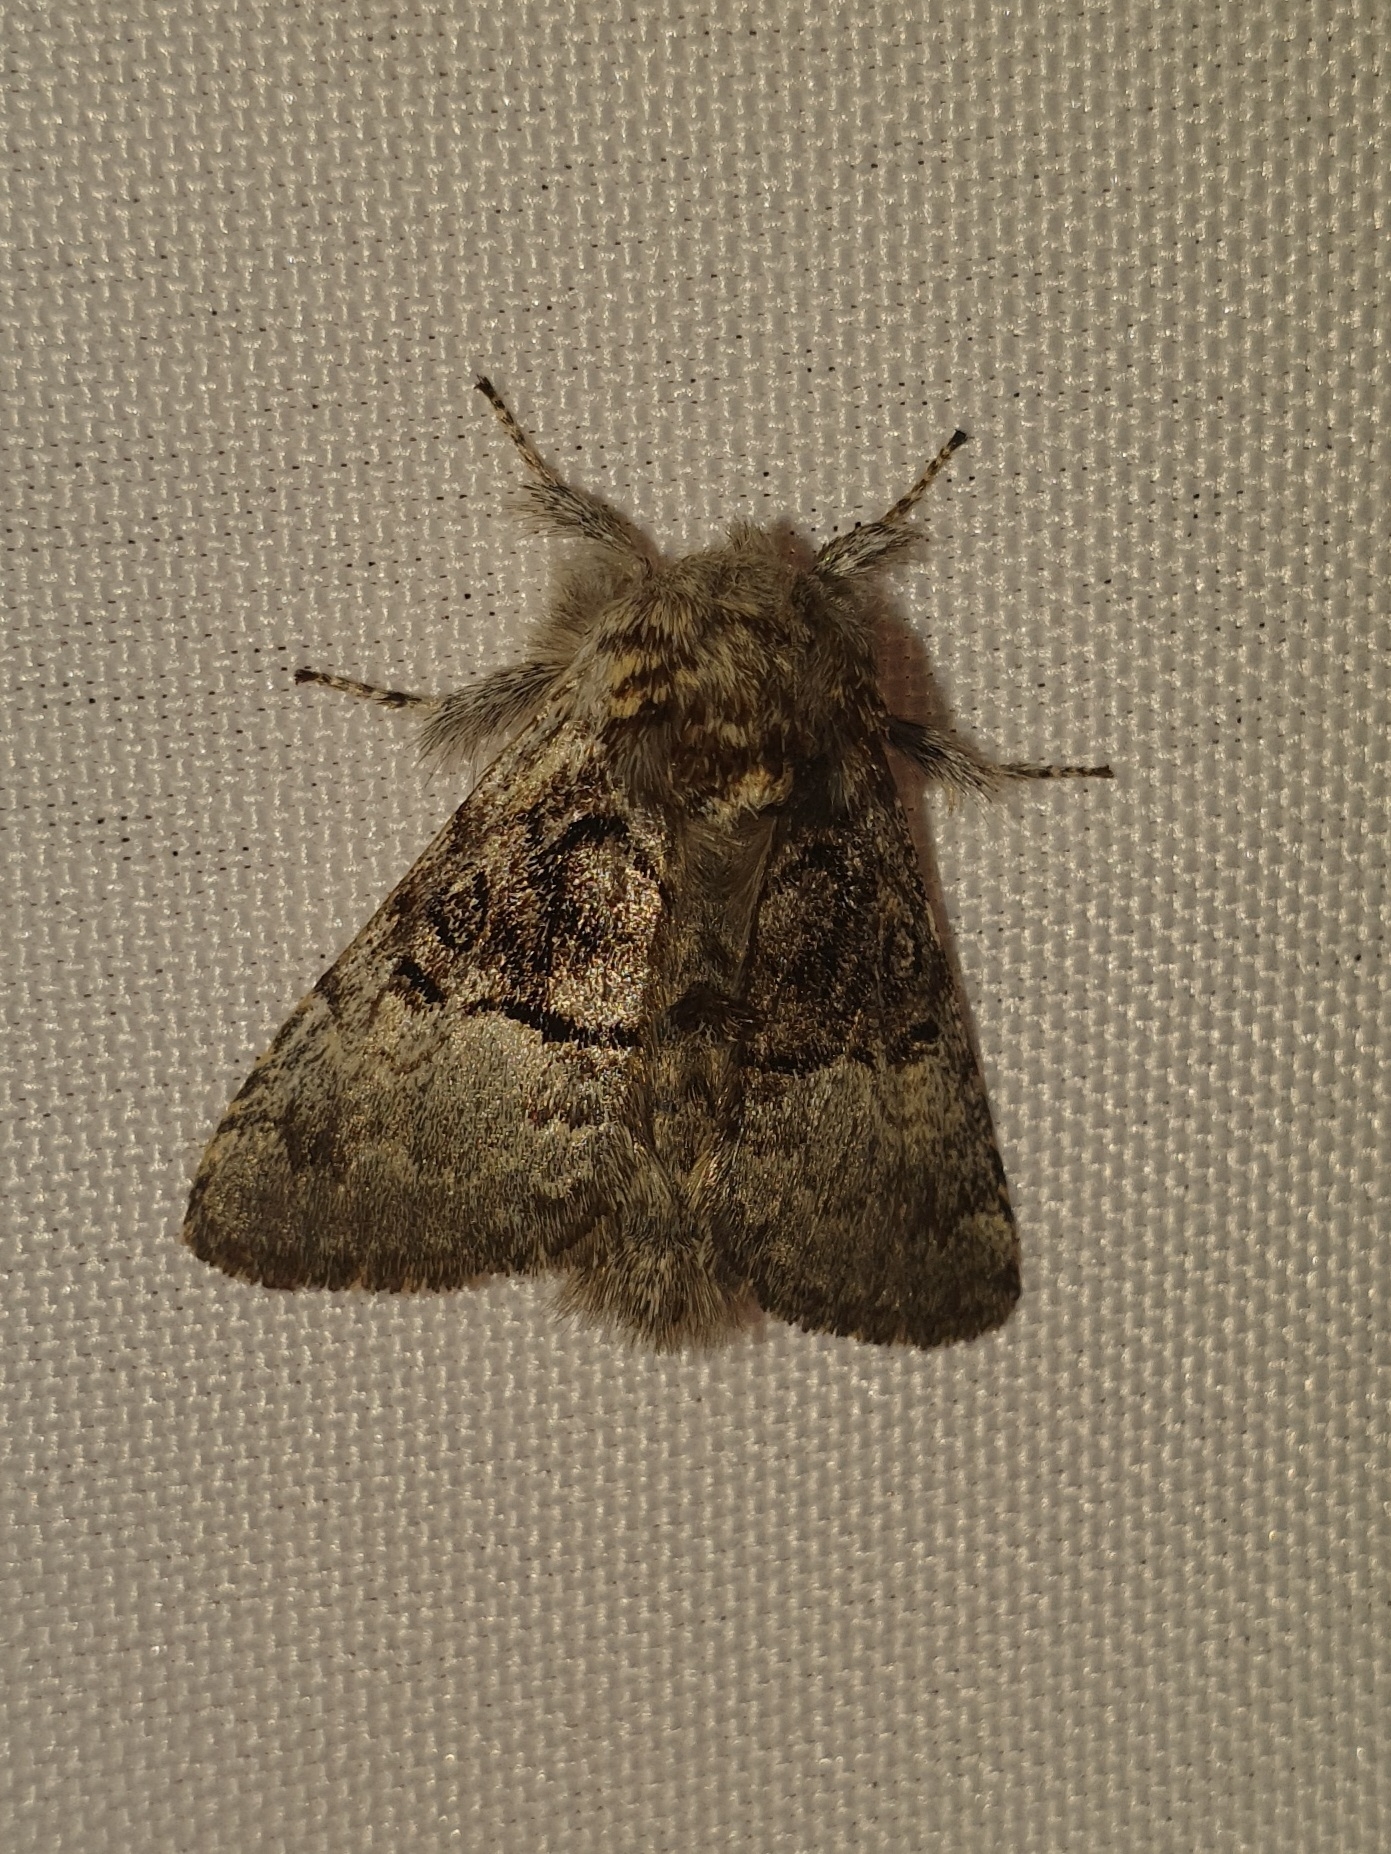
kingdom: Animalia
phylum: Arthropoda
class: Insecta
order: Lepidoptera
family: Noctuidae
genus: Colocasia
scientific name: Colocasia coryli
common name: Nut-tree tussock
